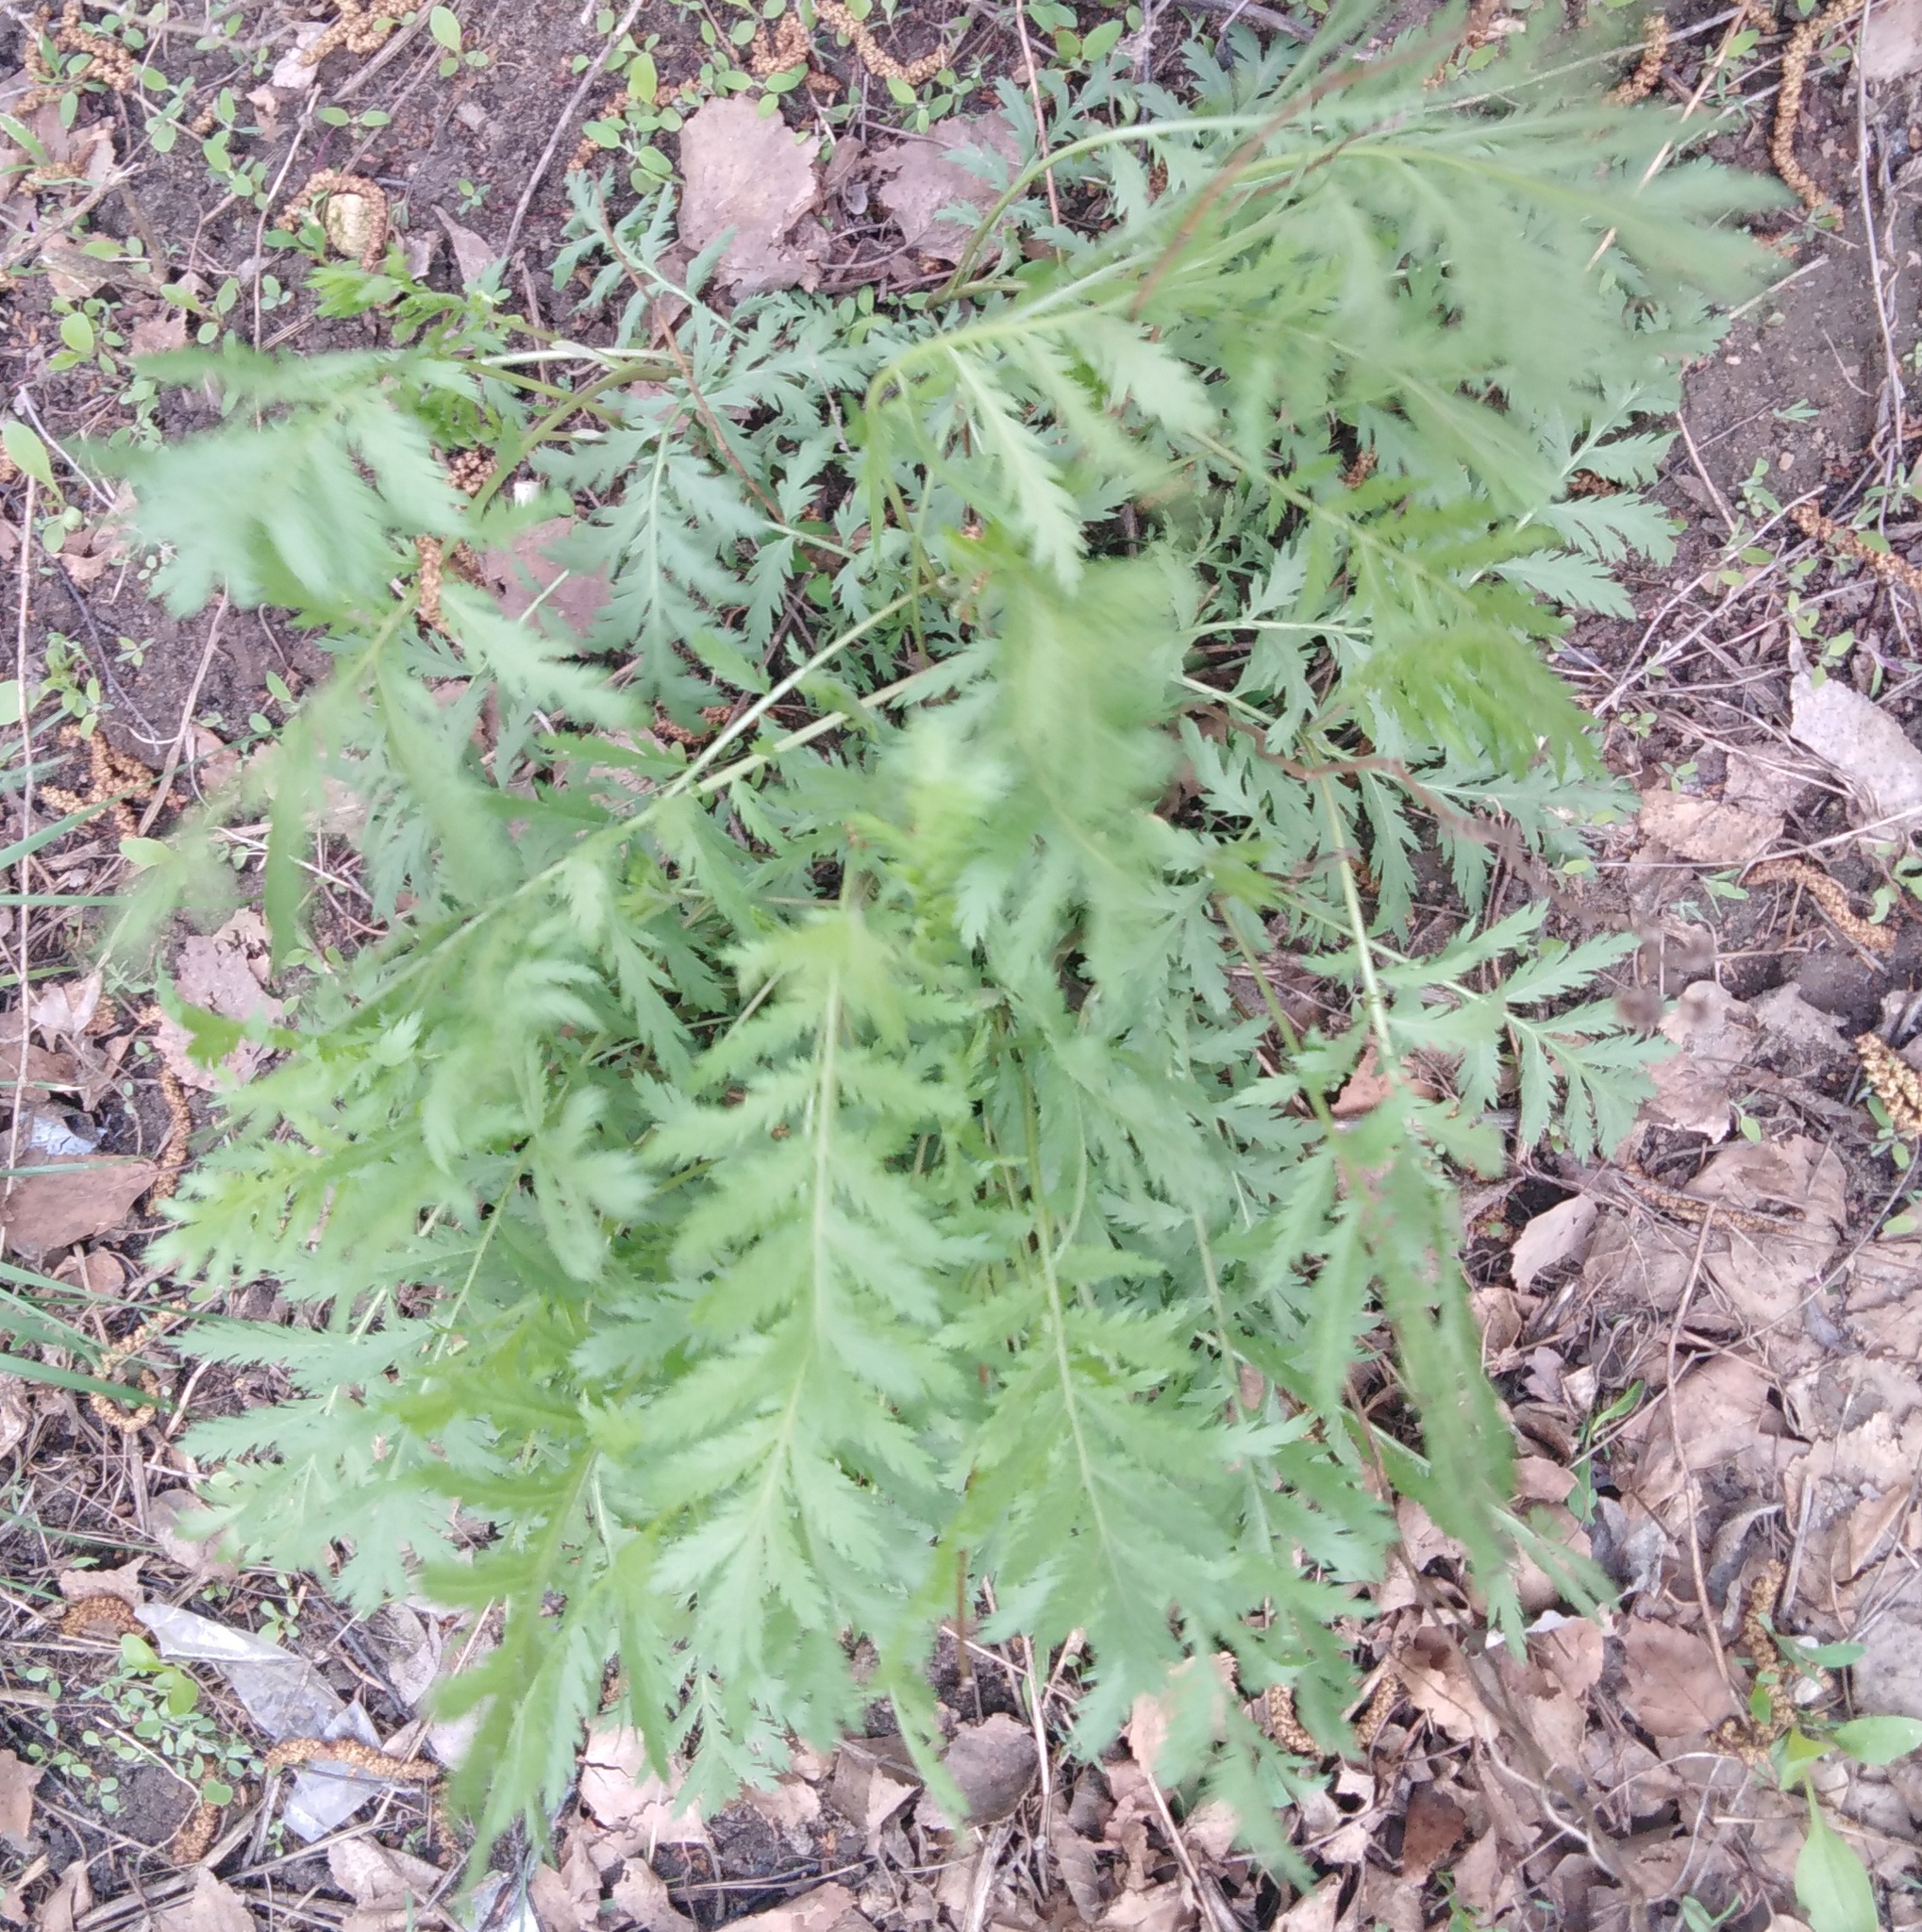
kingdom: Plantae
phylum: Tracheophyta
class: Magnoliopsida
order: Asterales
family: Asteraceae
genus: Tanacetum
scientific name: Tanacetum vulgare
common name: Common tansy
